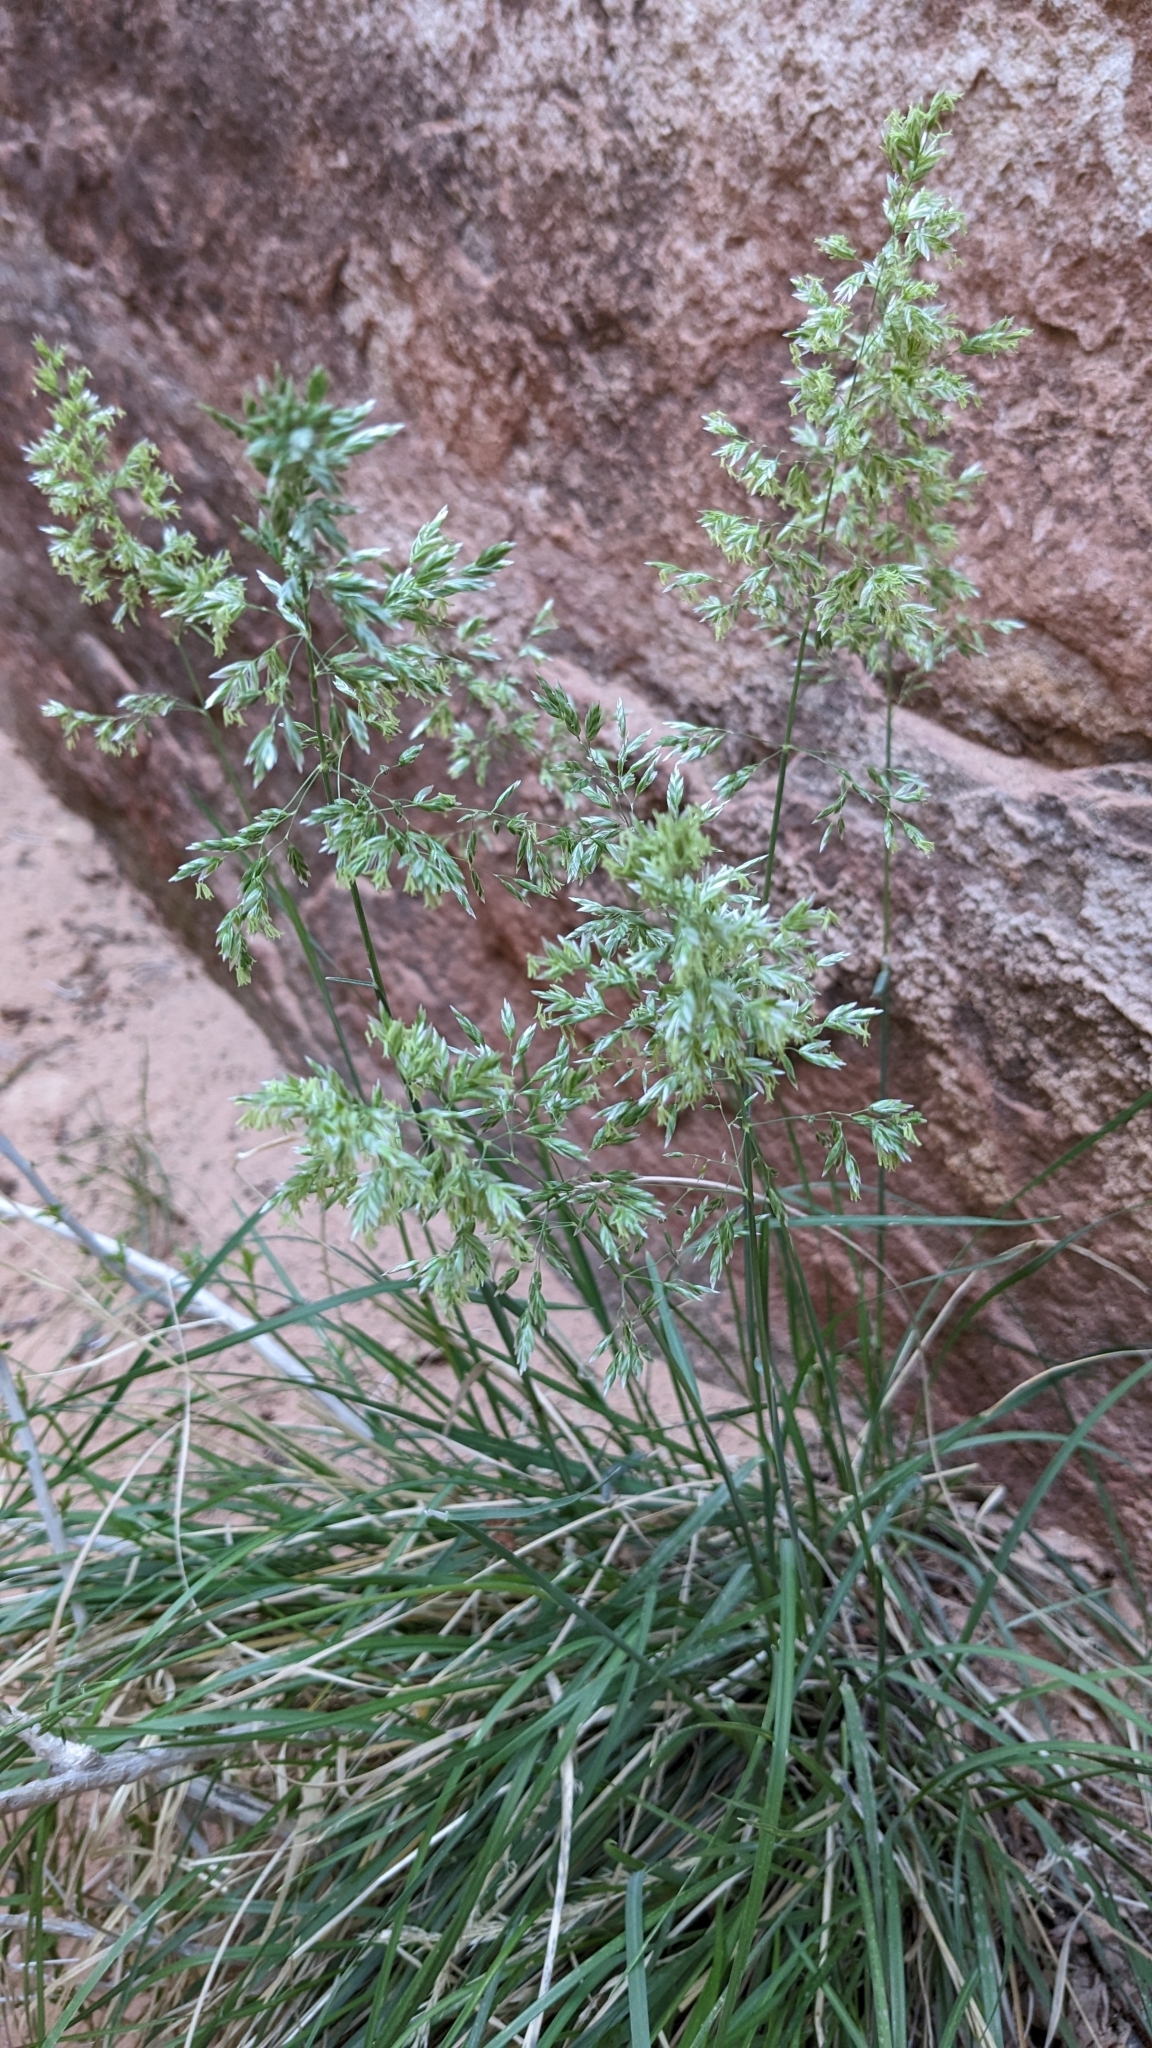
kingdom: Plantae
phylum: Tracheophyta
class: Liliopsida
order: Poales
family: Poaceae
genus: Poa
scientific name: Poa fendleriana
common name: Mutton bluegrass
